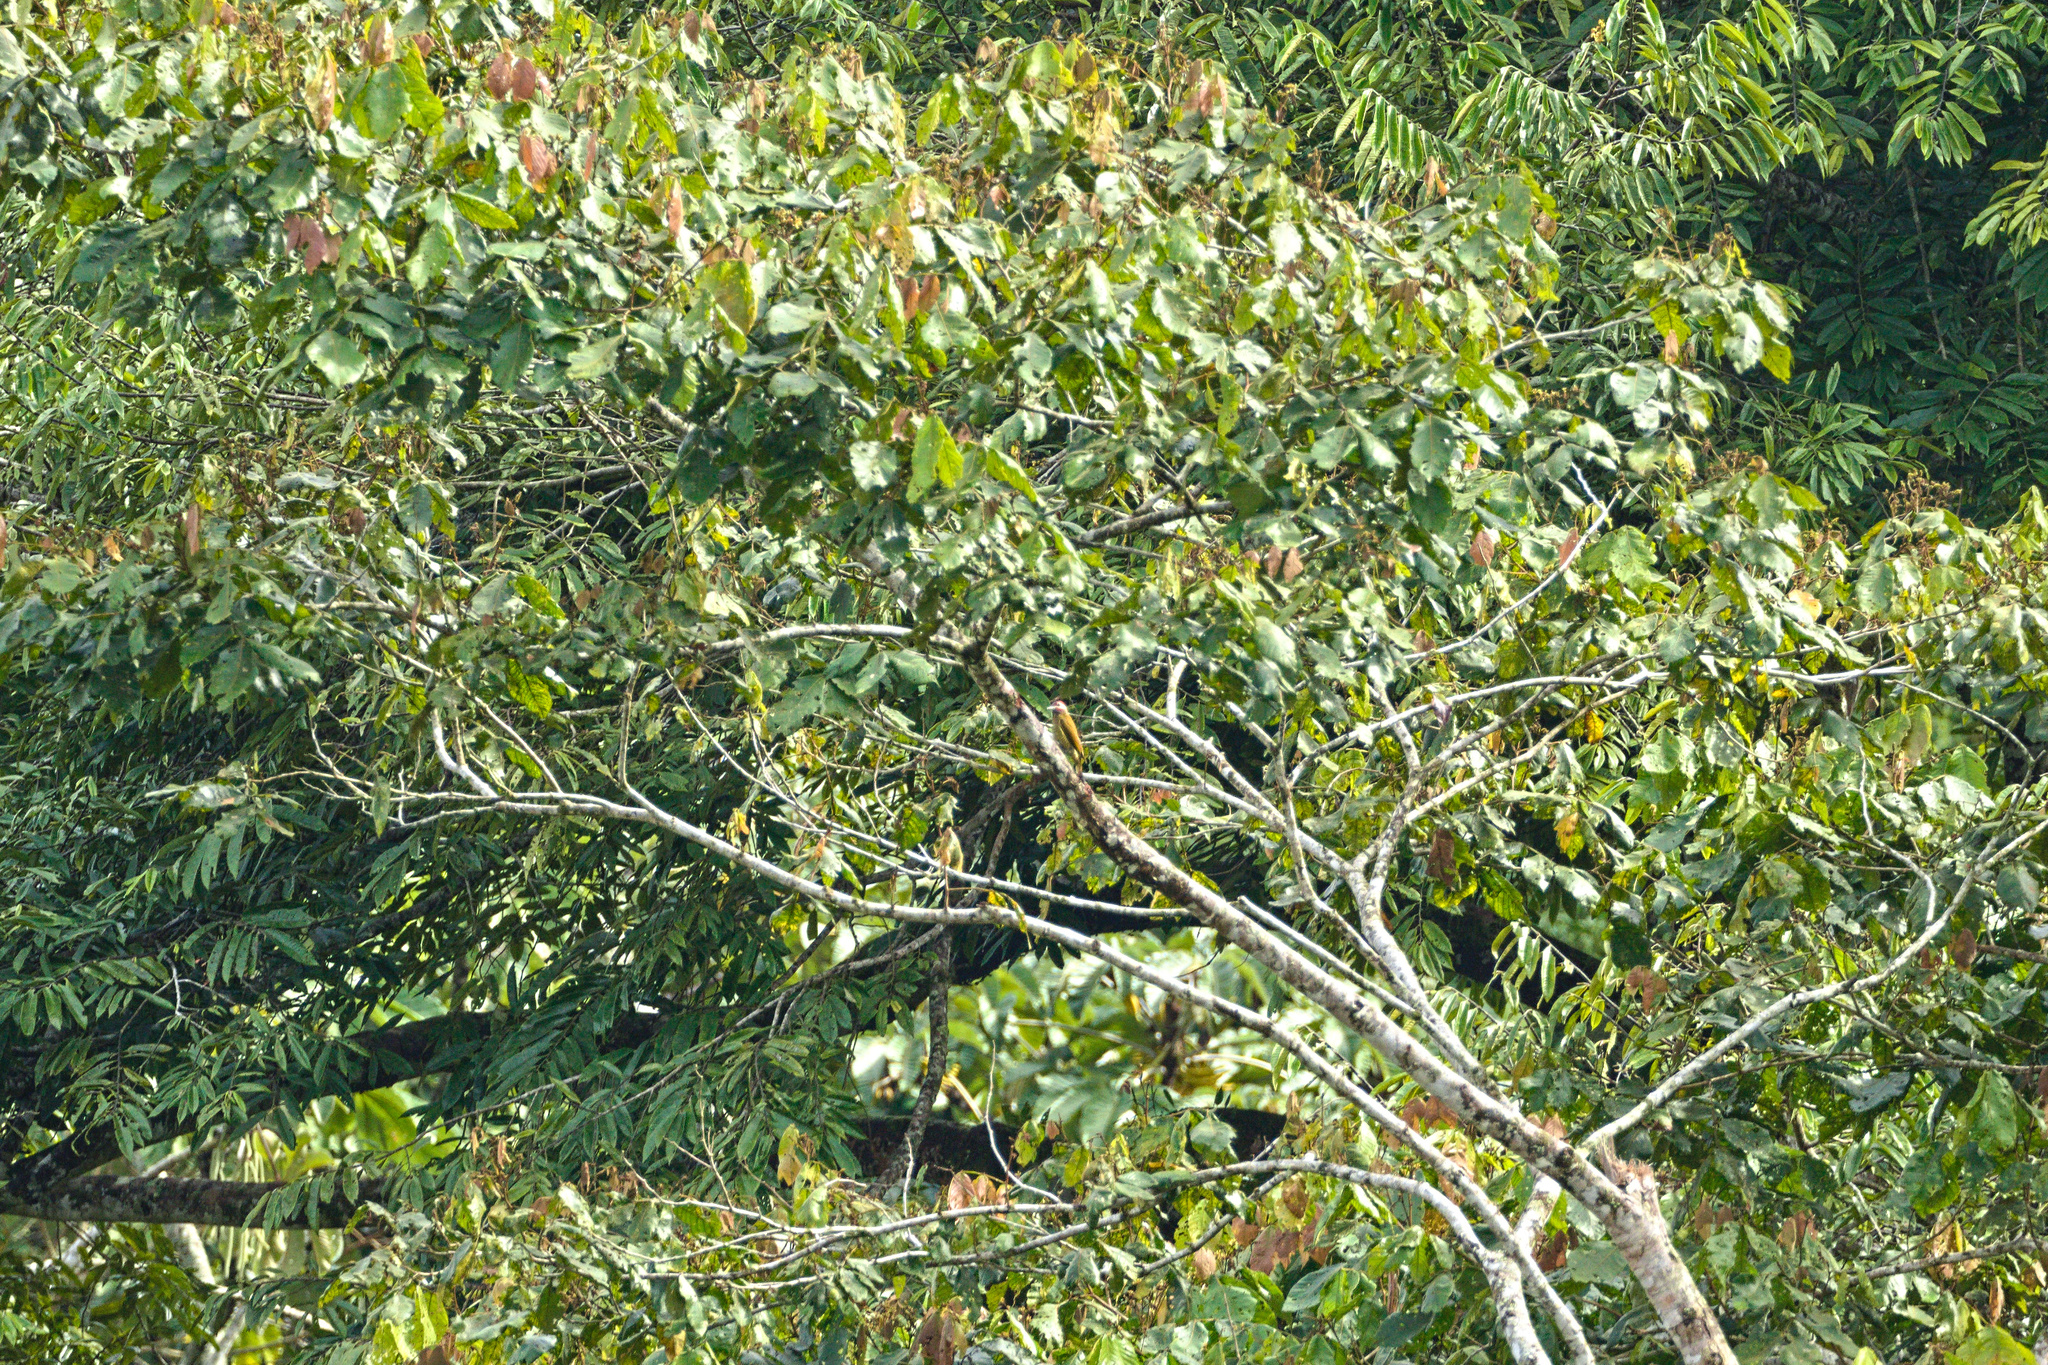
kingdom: Animalia
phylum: Chordata
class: Aves
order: Piciformes
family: Picidae
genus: Colaptes
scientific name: Colaptes rubiginosus
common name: Golden-olive woodpecker
